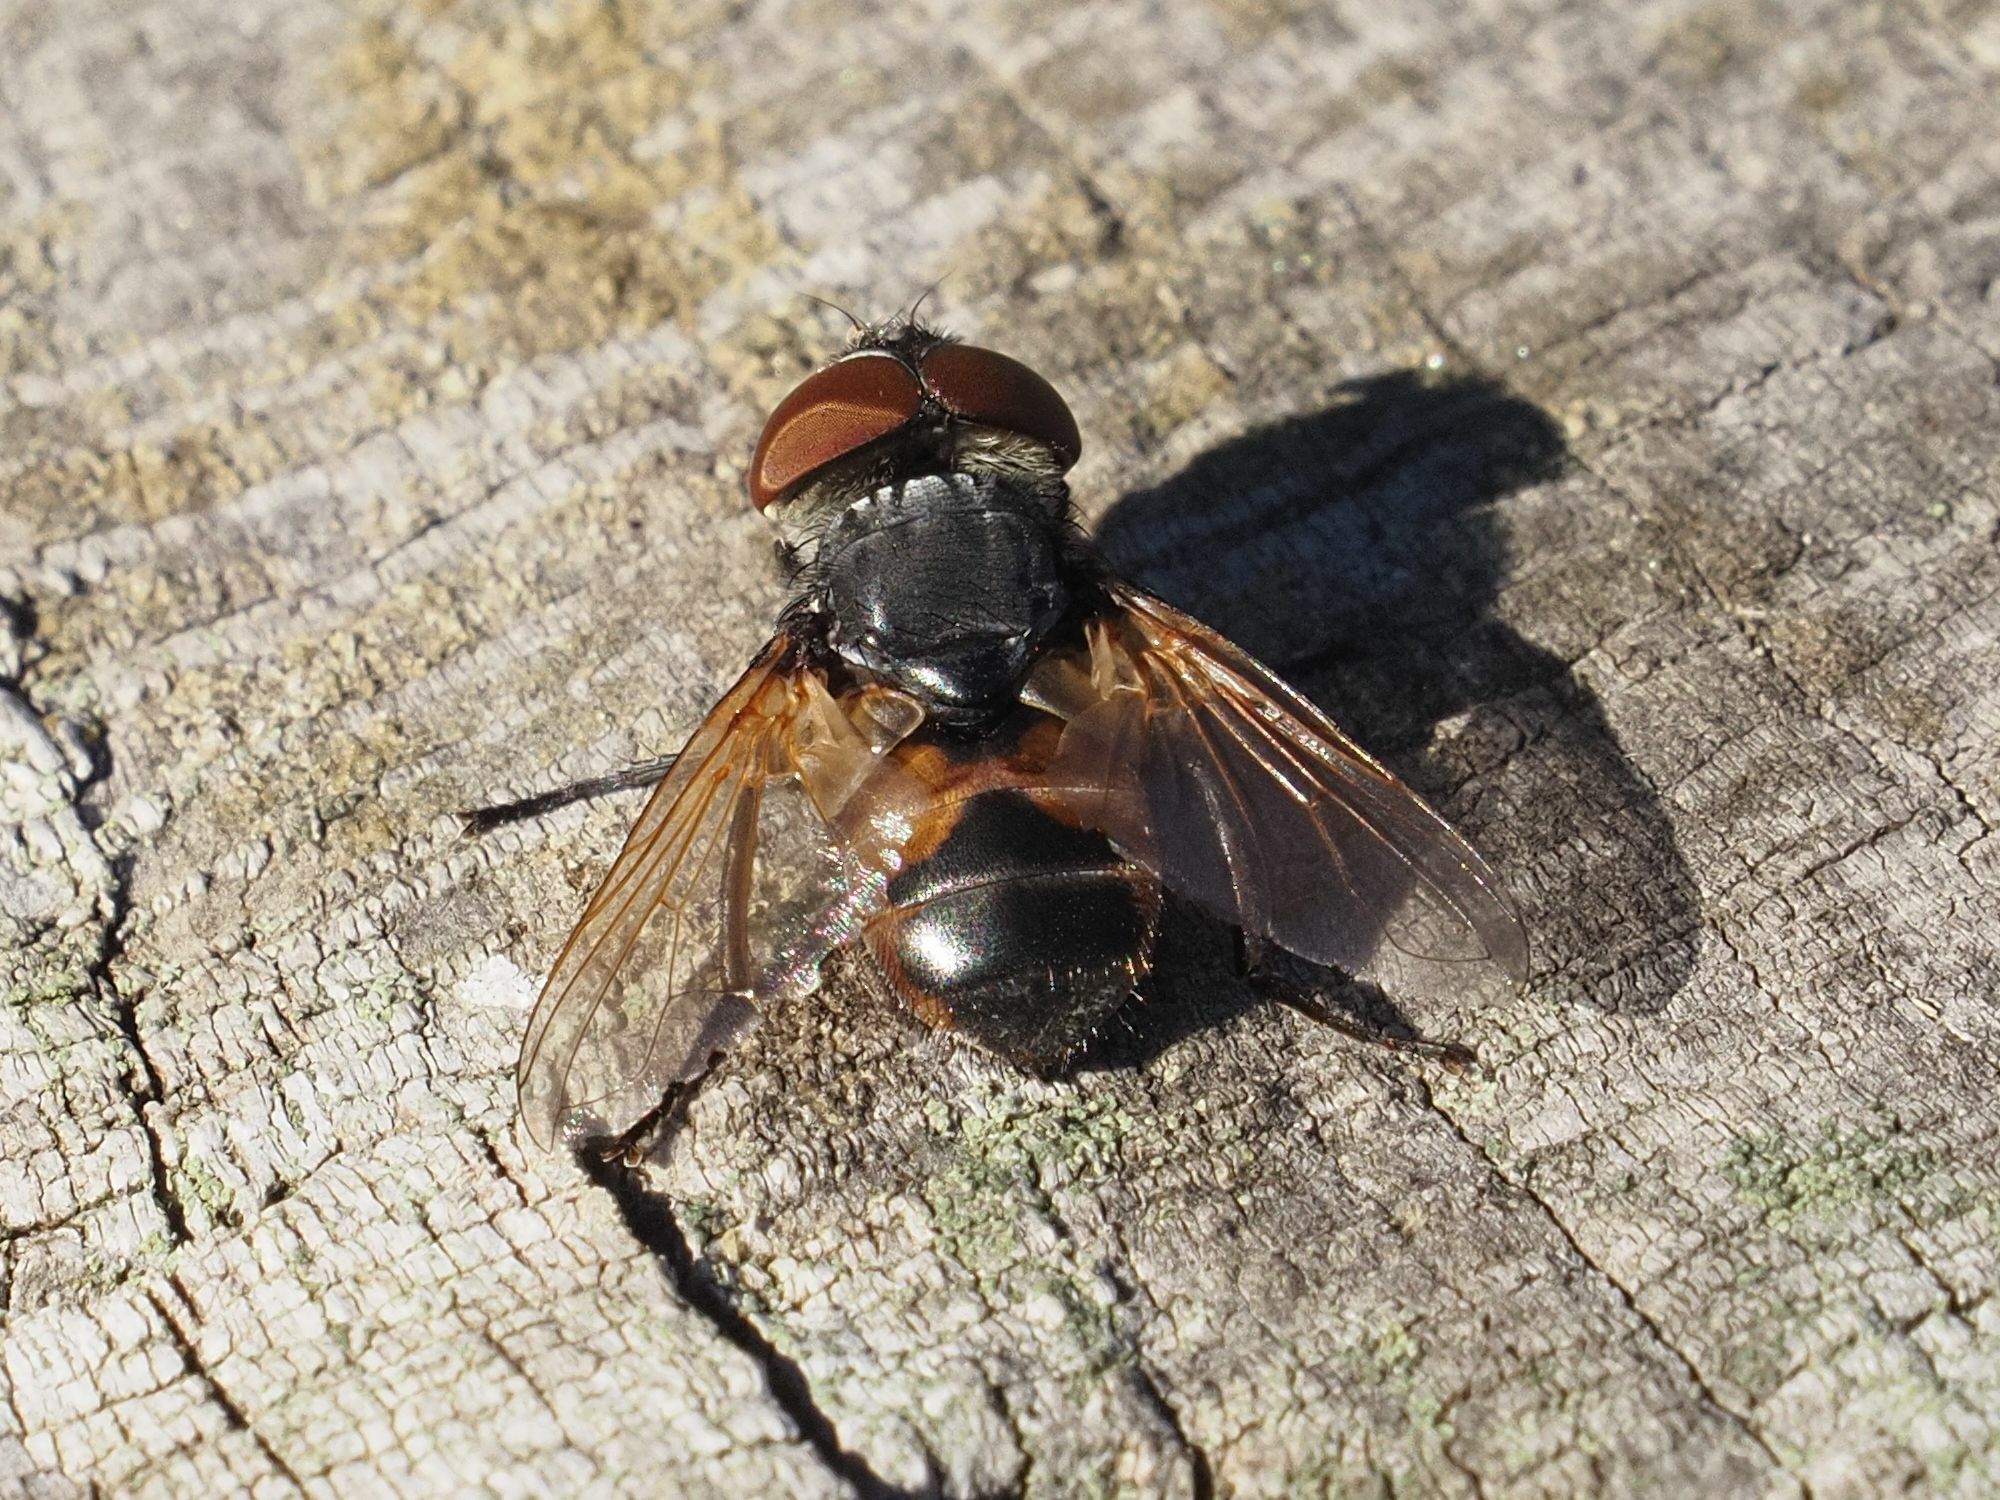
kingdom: Animalia
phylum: Arthropoda
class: Insecta
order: Diptera
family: Tachinidae
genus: Phasia
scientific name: Phasia aurigera
